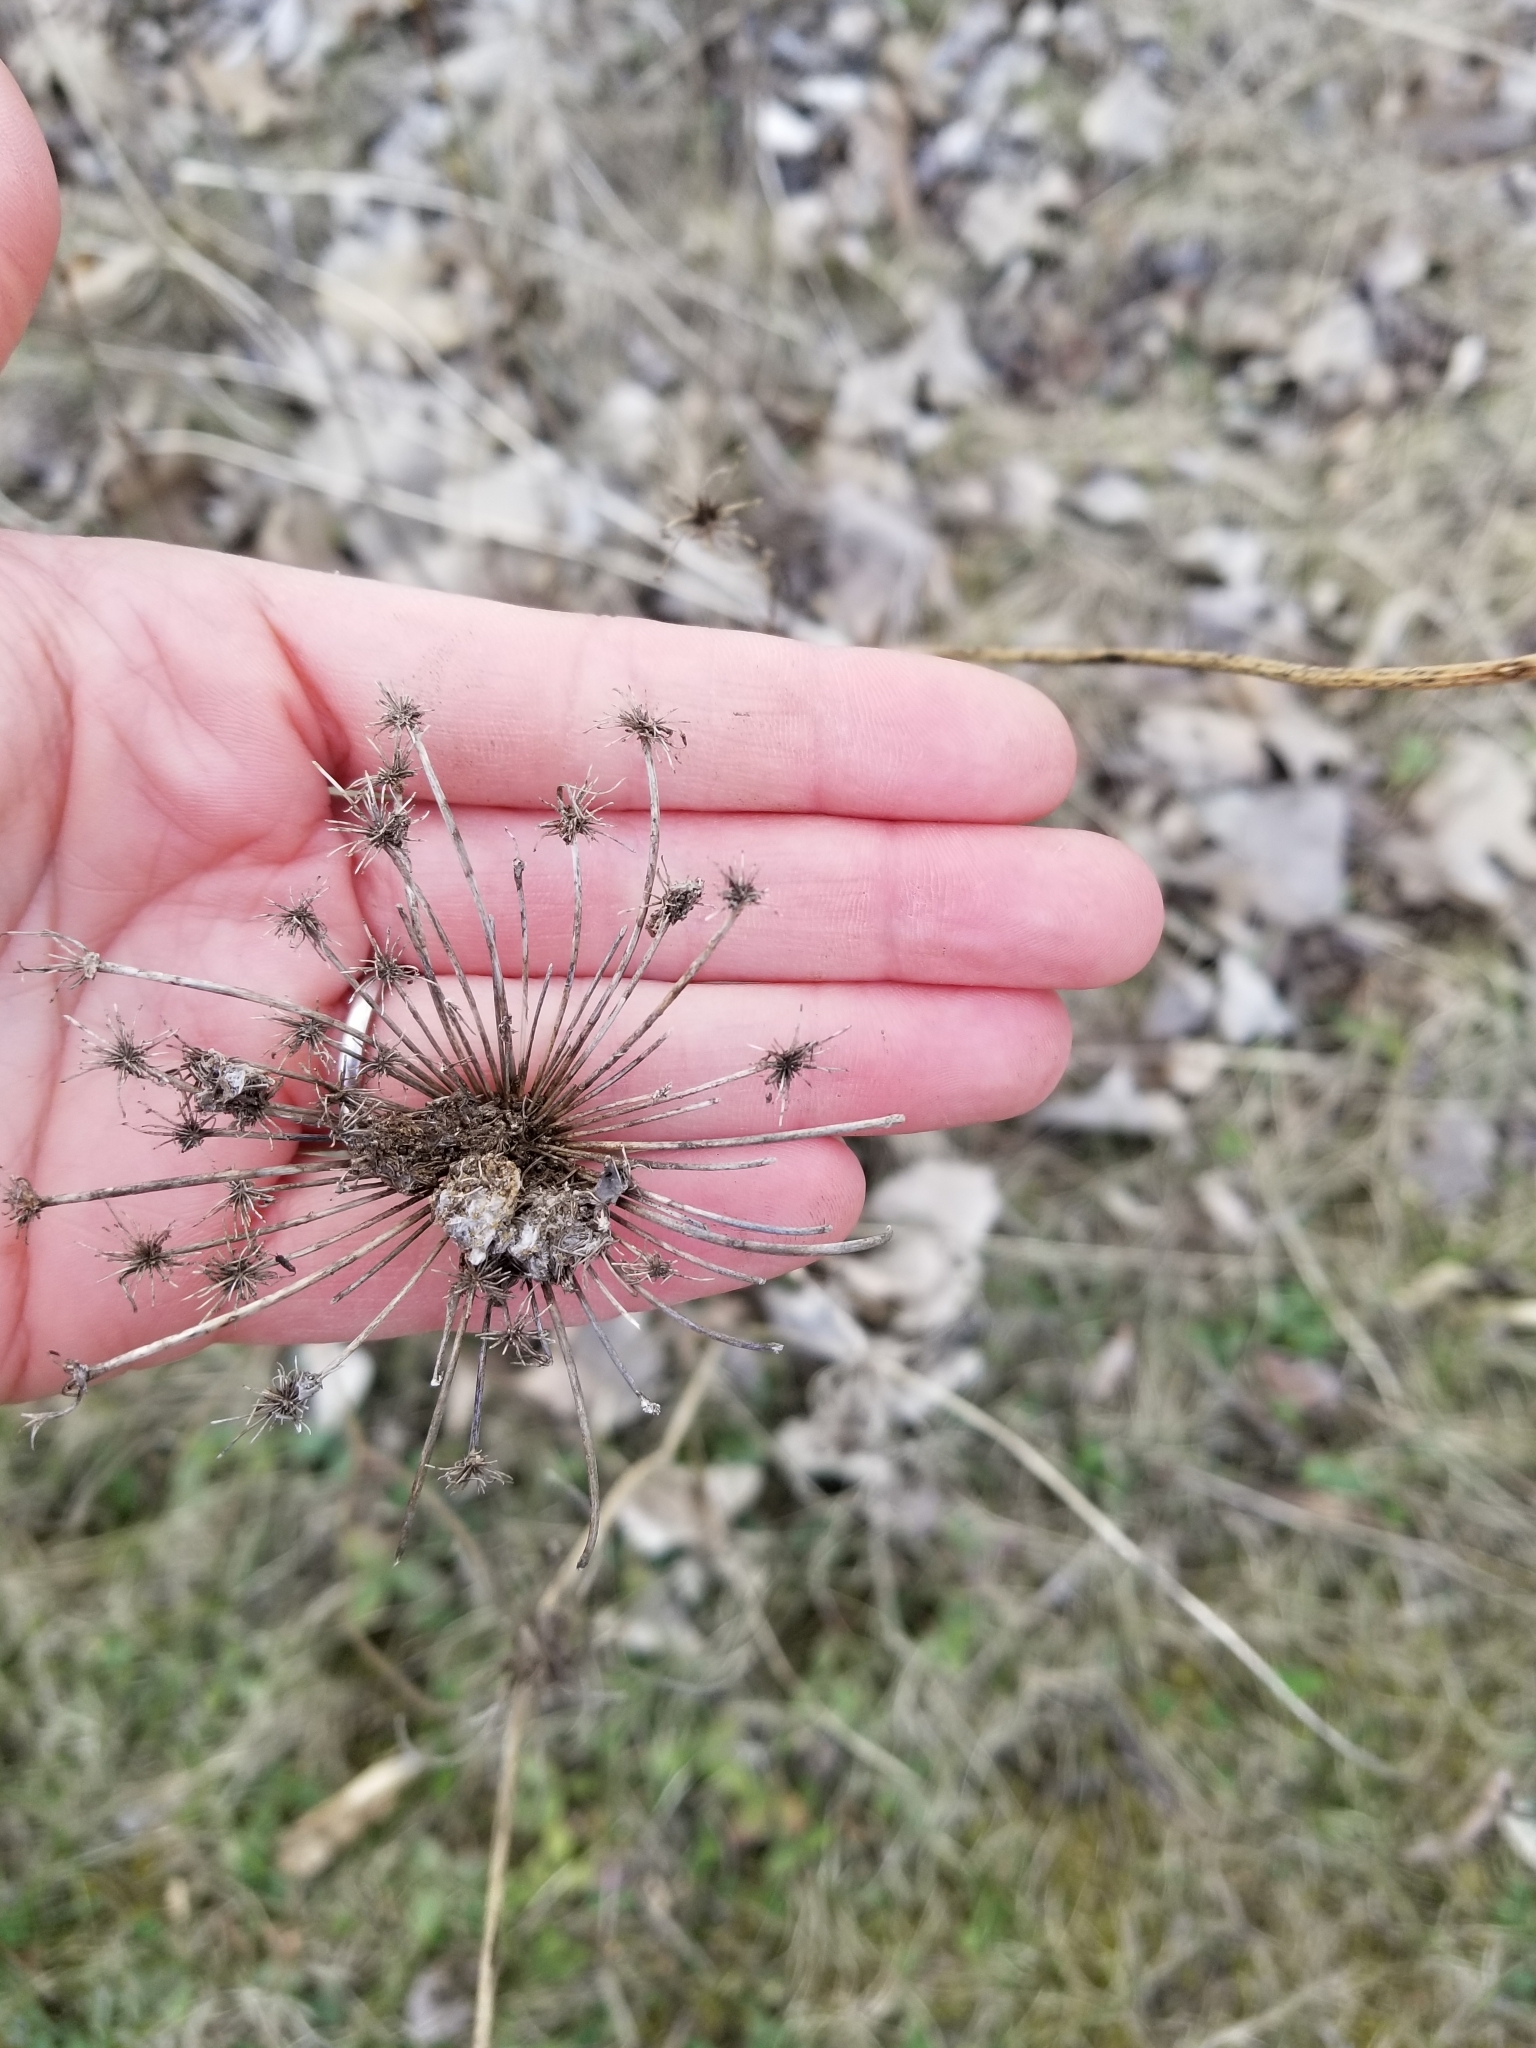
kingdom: Plantae
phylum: Tracheophyta
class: Magnoliopsida
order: Apiales
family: Apiaceae
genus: Daucus
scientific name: Daucus carota
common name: Wild carrot
